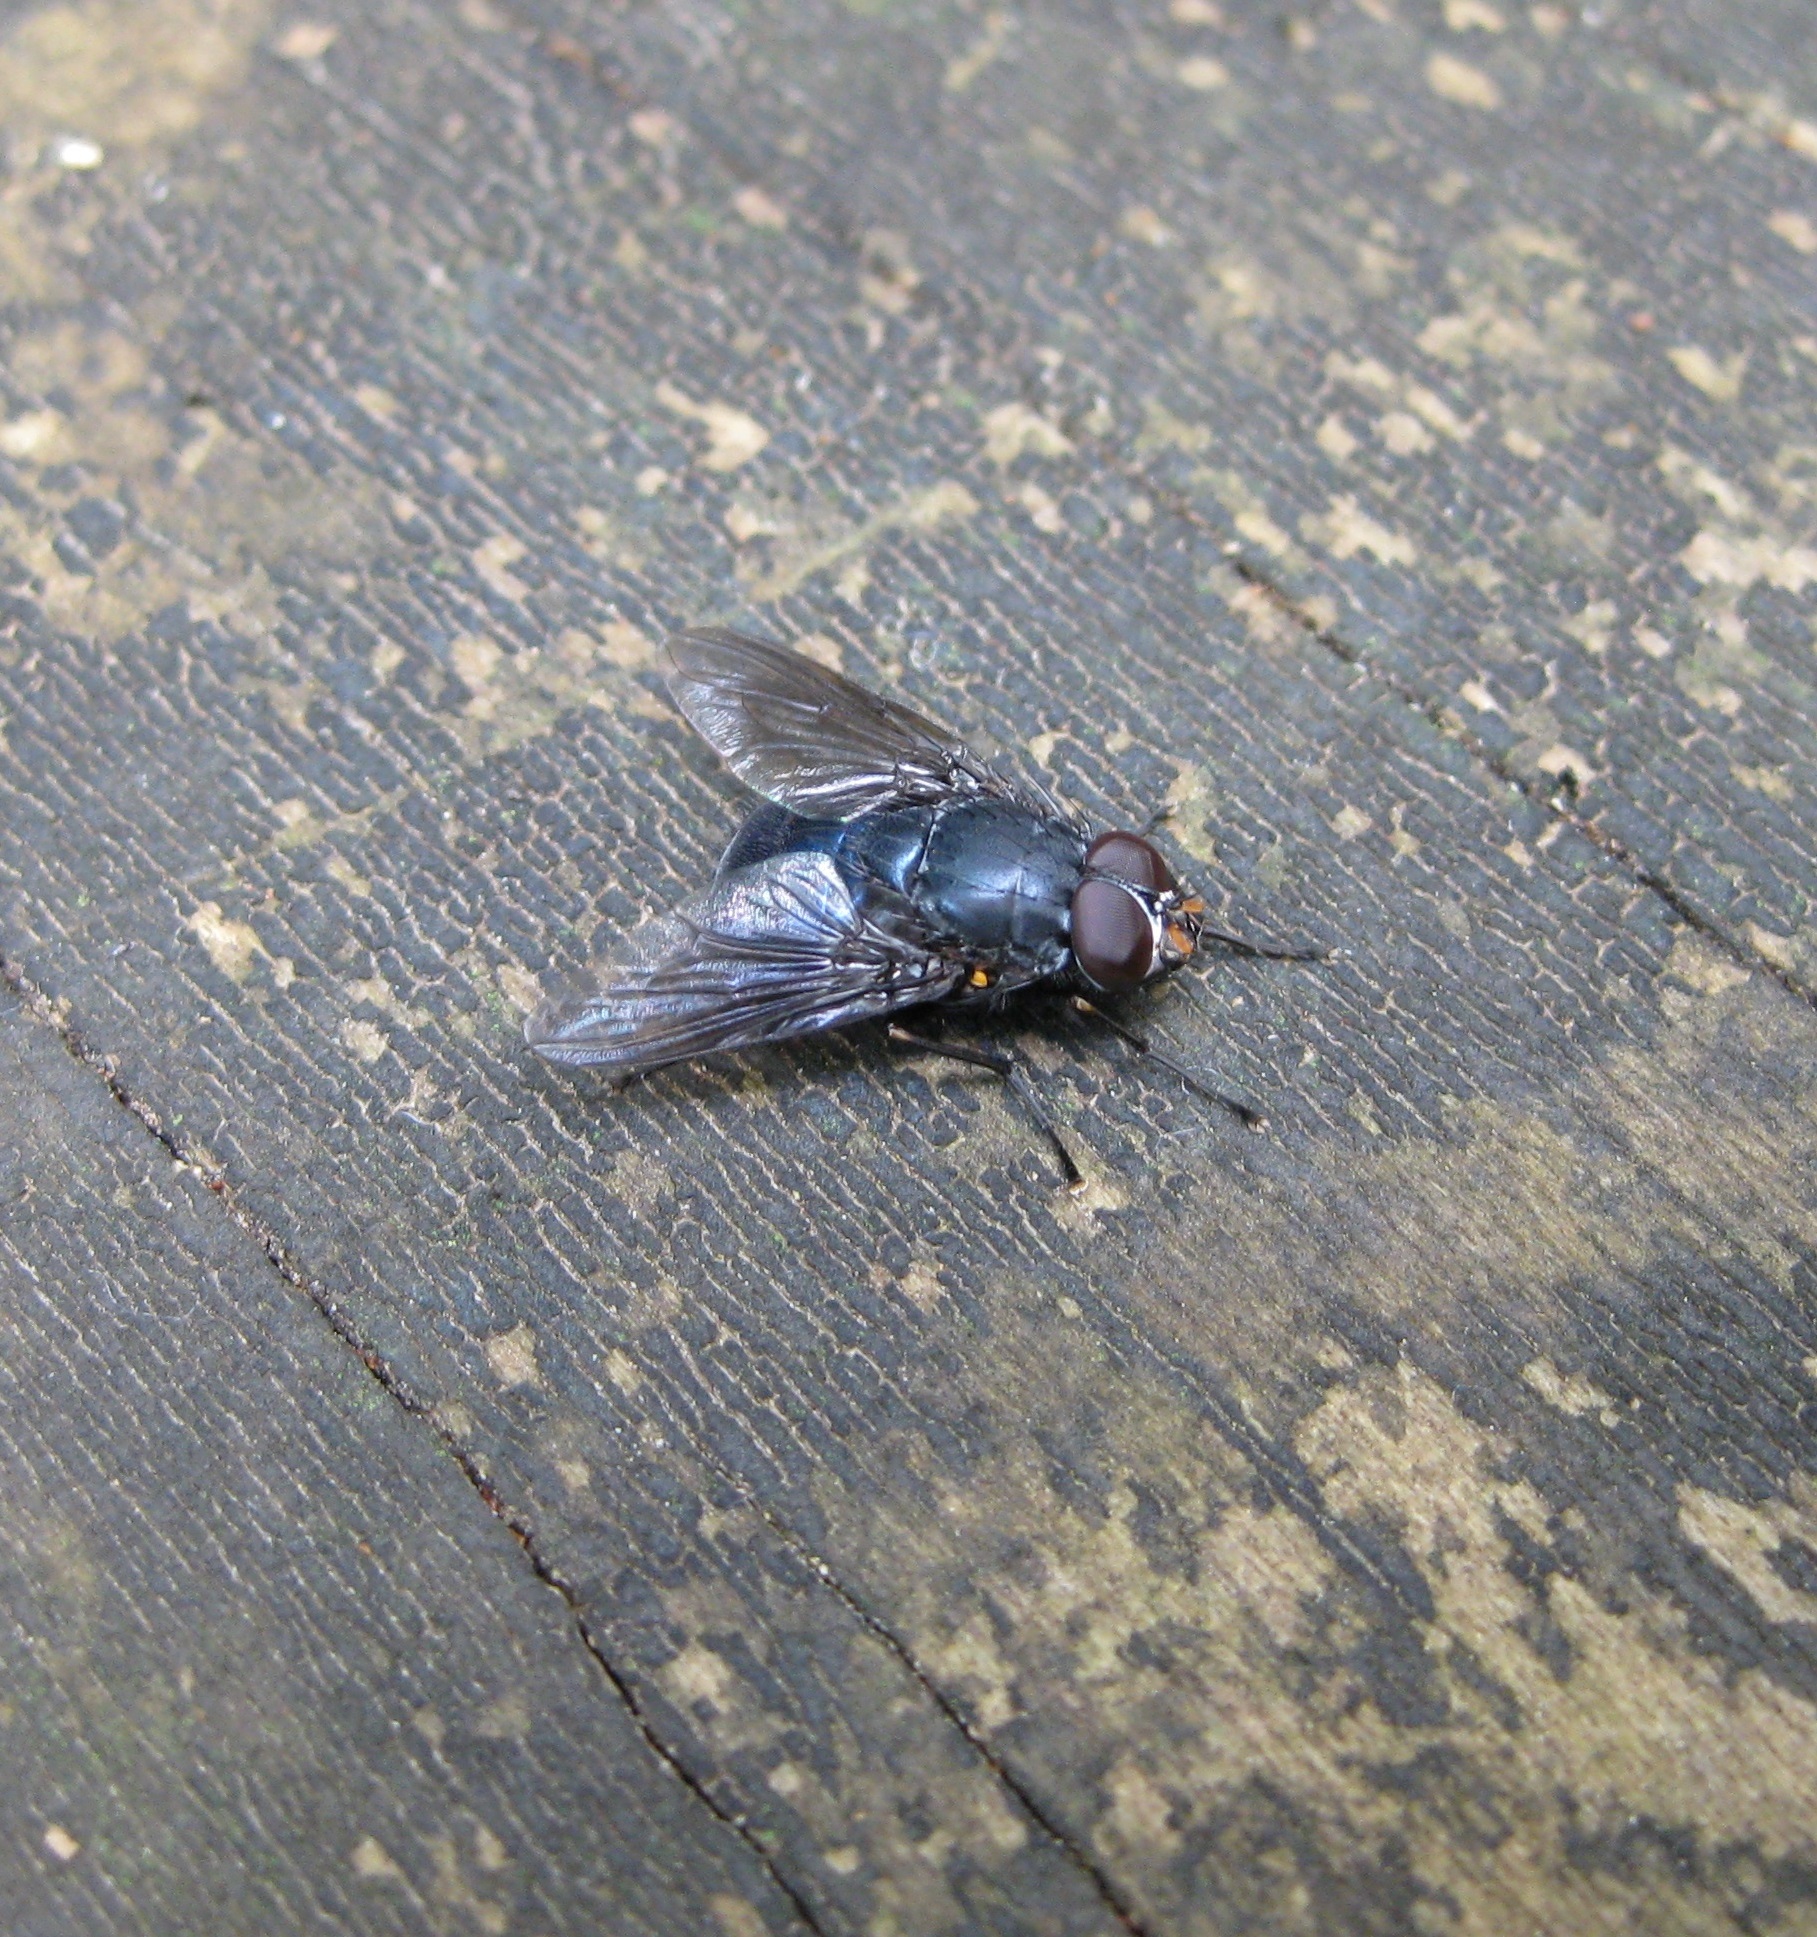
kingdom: Animalia
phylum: Arthropoda
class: Insecta
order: Diptera
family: Muscidae
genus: Calliphoroides
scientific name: Calliphoroides antennatis
